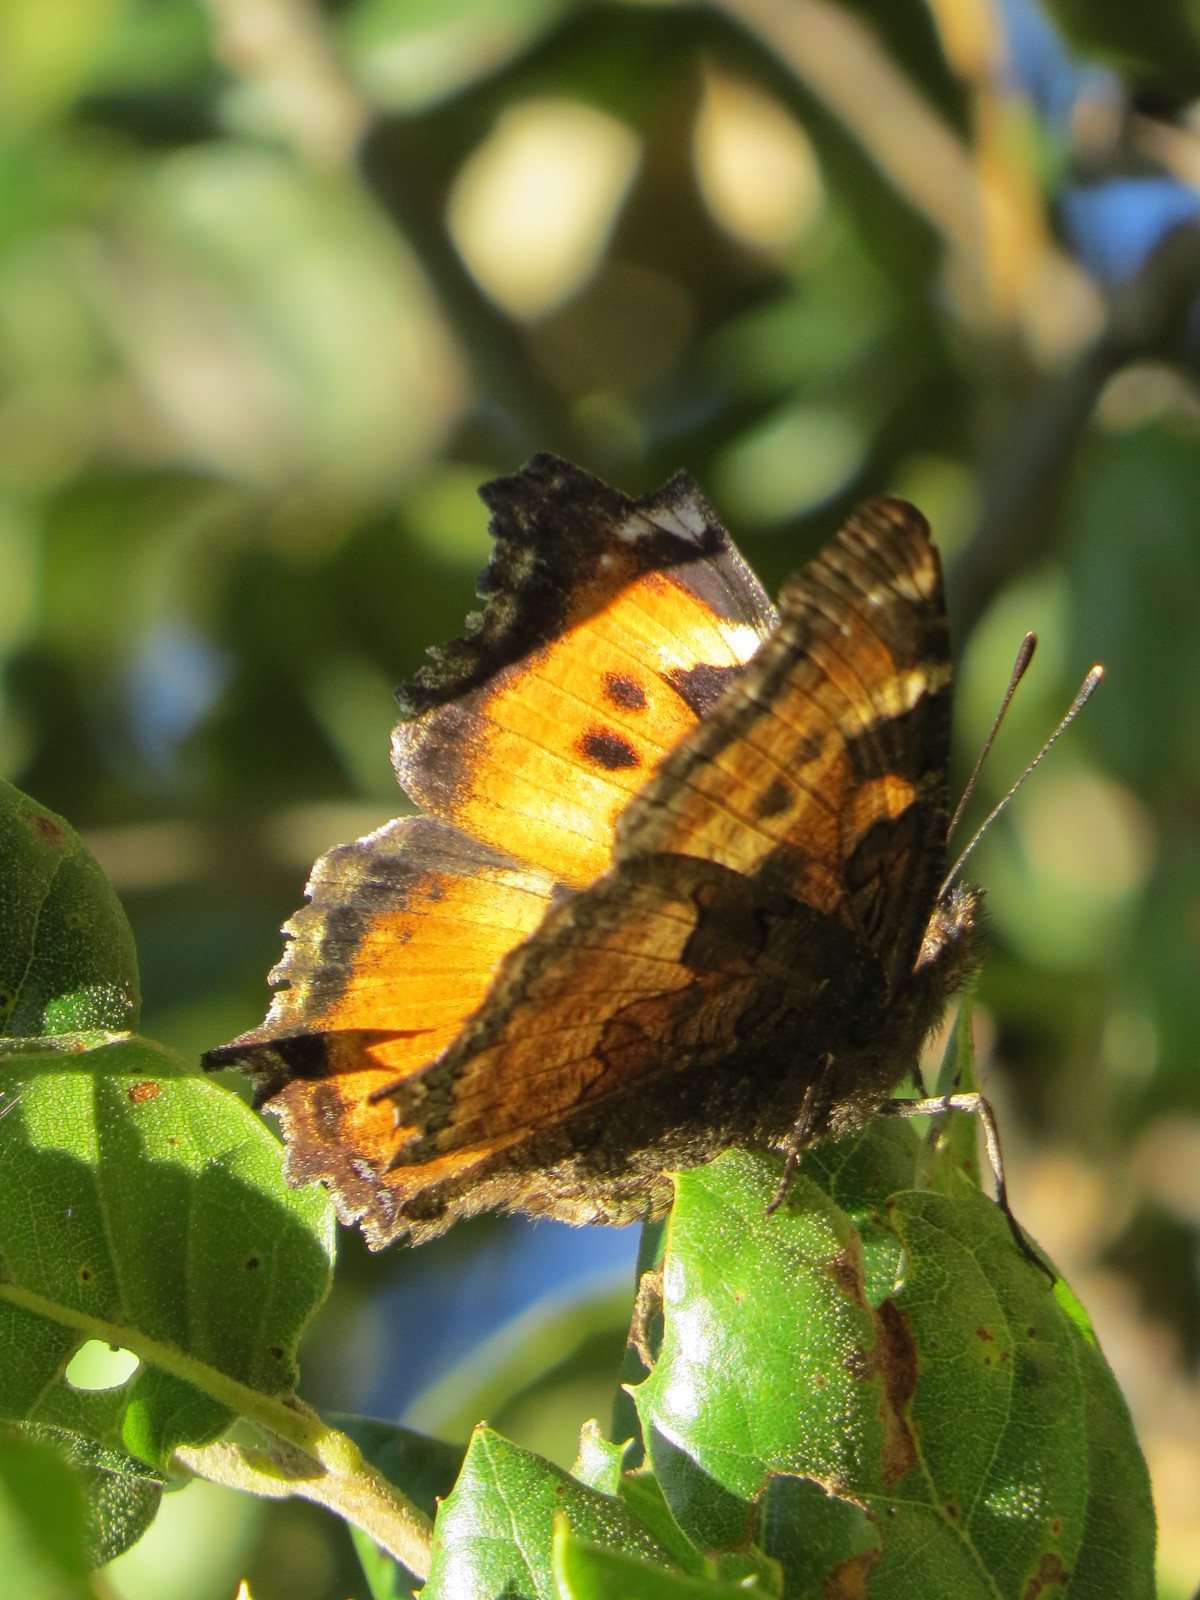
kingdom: Animalia
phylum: Arthropoda
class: Insecta
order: Lepidoptera
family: Nymphalidae
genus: Nymphalis
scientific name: Nymphalis californica
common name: California tortoiseshell
